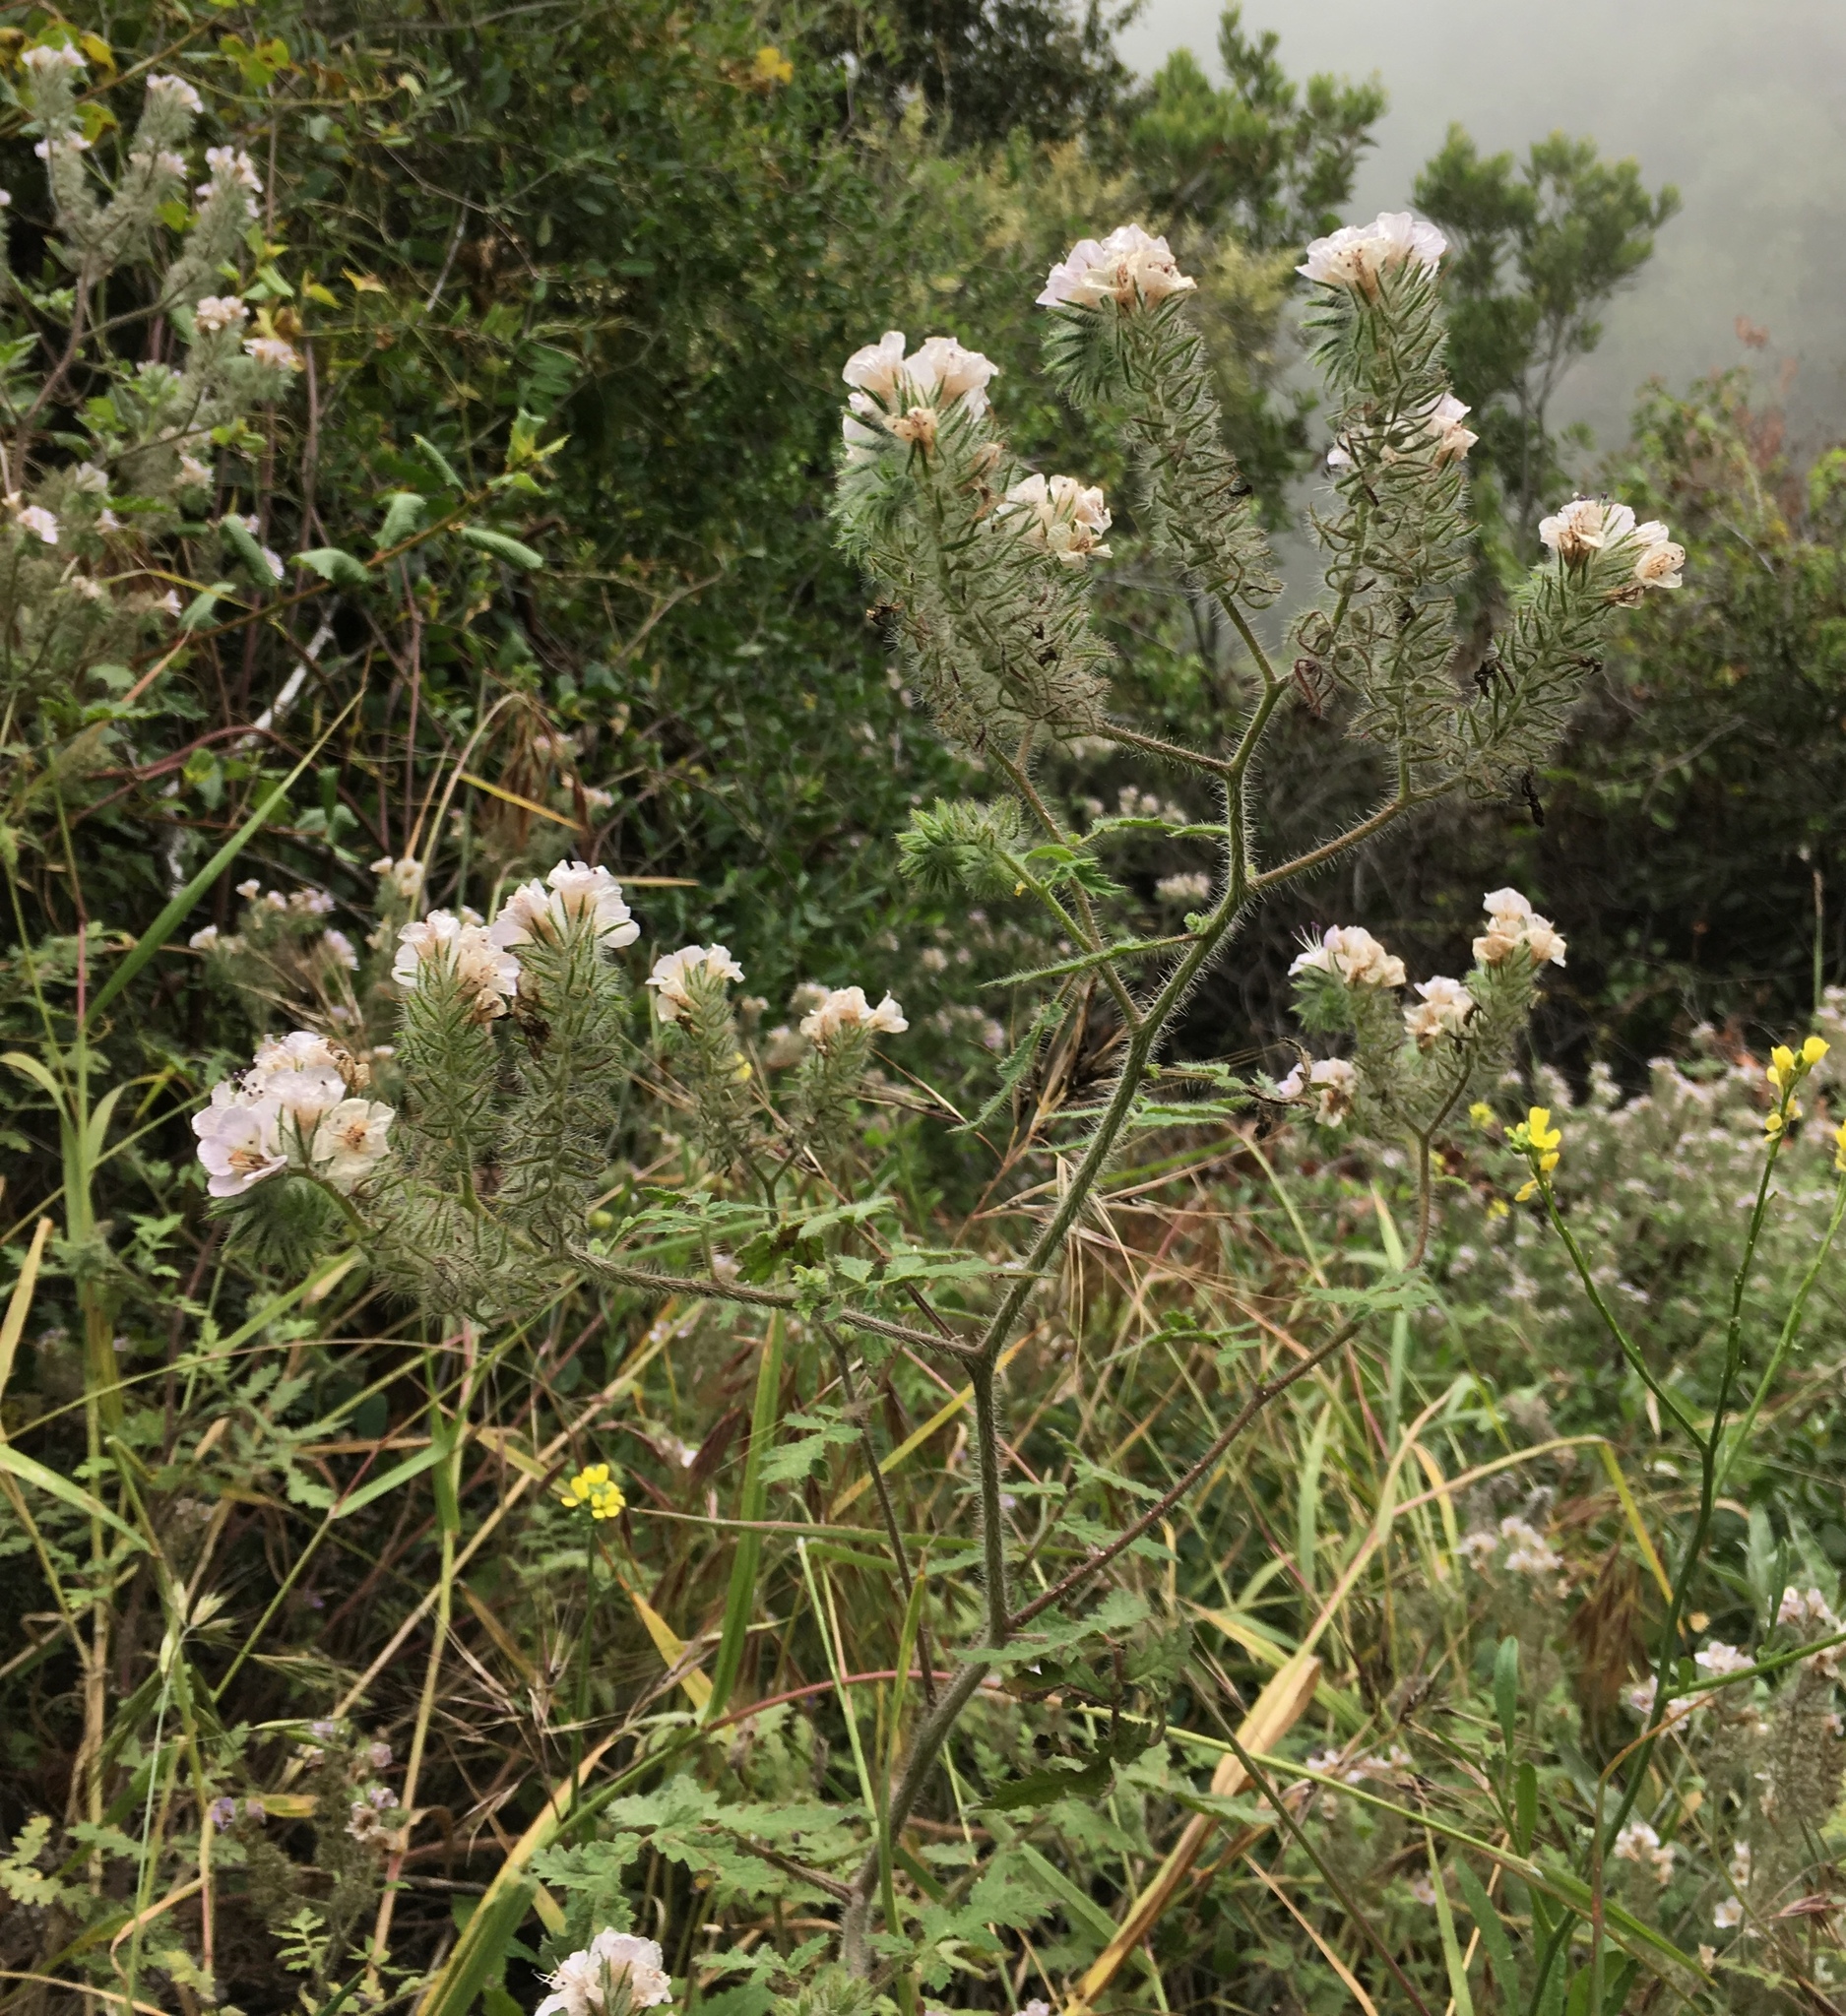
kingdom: Plantae
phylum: Tracheophyta
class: Magnoliopsida
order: Boraginales
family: Hydrophyllaceae
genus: Phacelia
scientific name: Phacelia cicutaria
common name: Caterpillar phacelia
